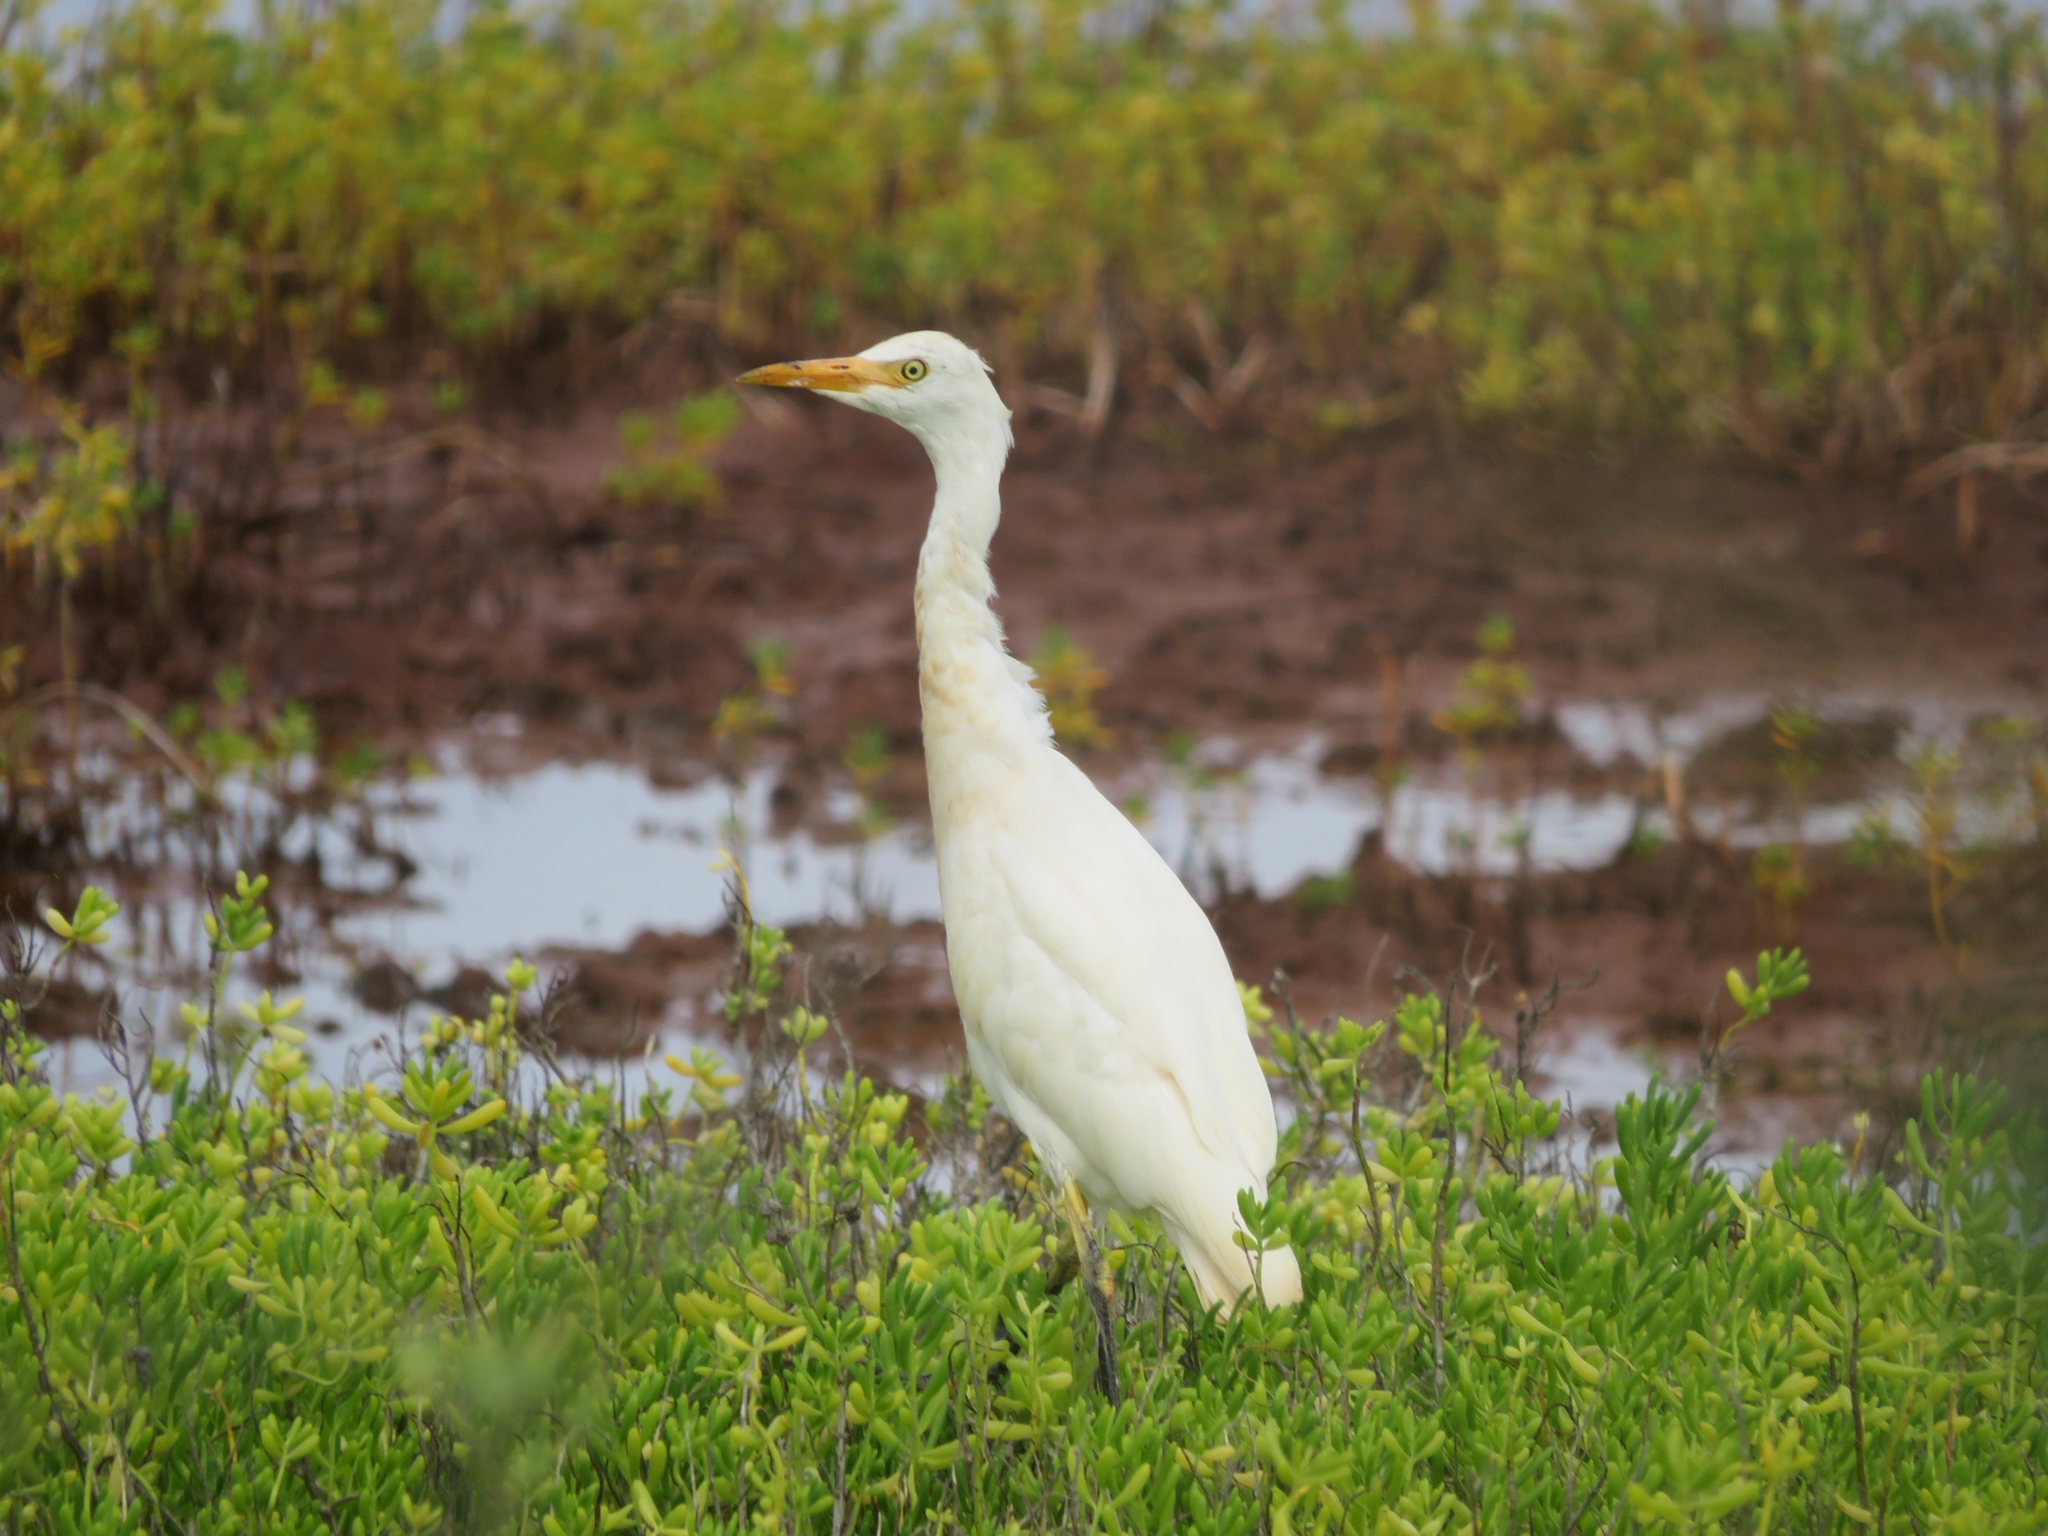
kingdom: Animalia
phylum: Chordata
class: Aves
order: Pelecaniformes
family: Ardeidae
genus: Bubulcus
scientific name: Bubulcus ibis
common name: Cattle egret
